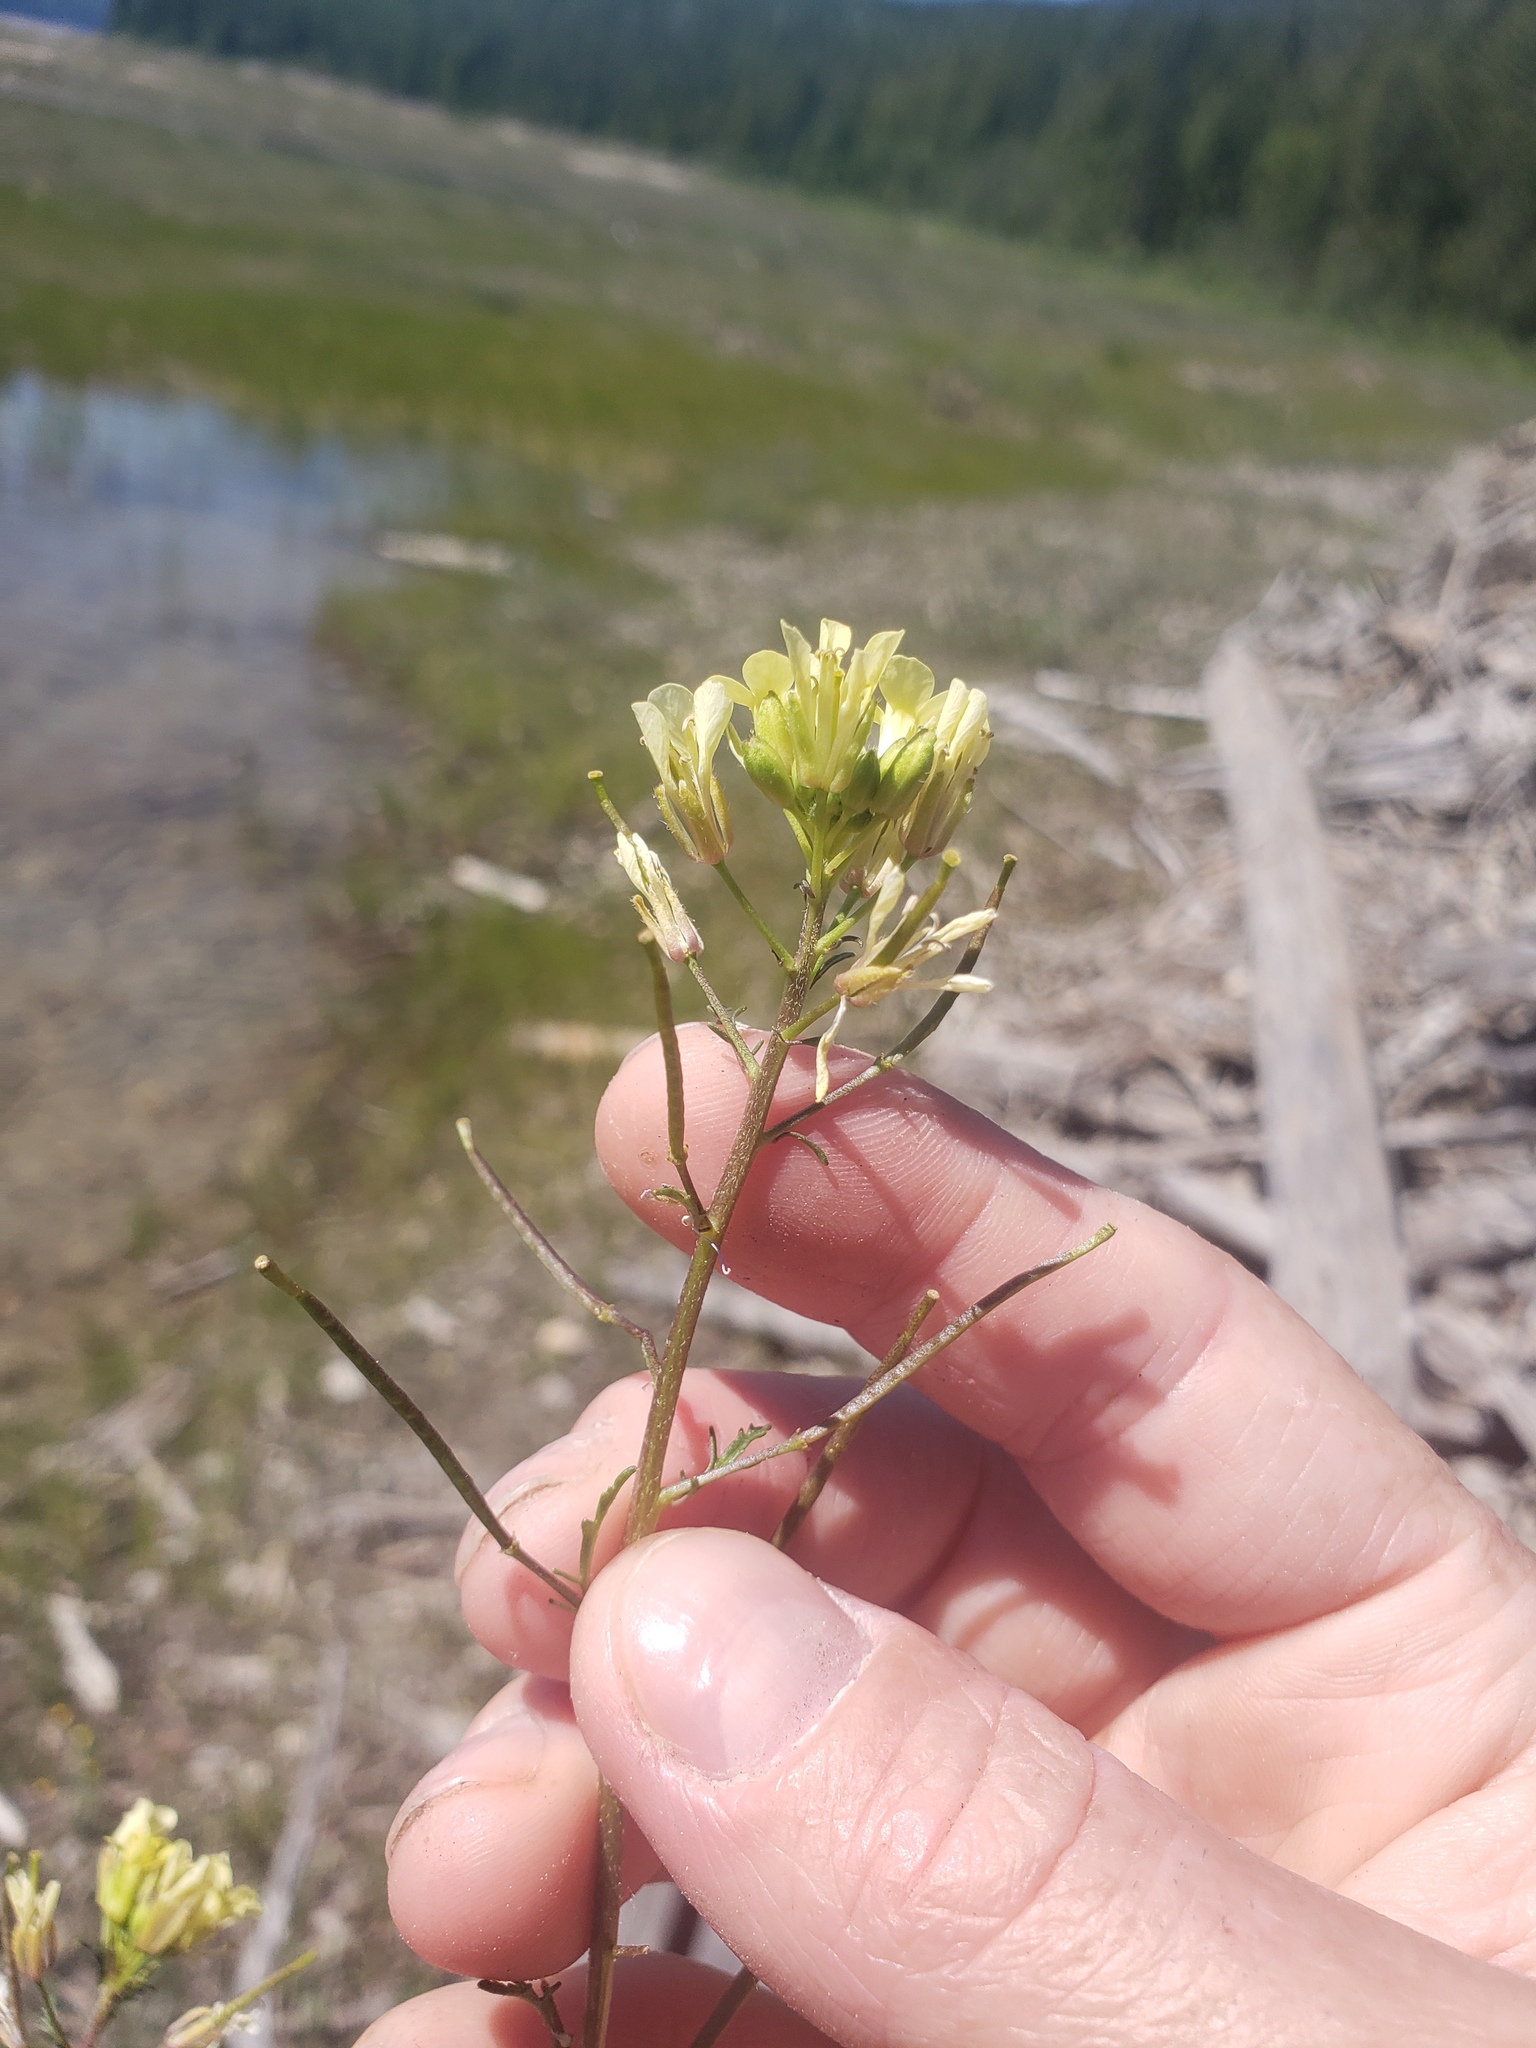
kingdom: Plantae
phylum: Tracheophyta
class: Magnoliopsida
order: Brassicales
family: Brassicaceae
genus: Erucastrum
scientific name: Erucastrum gallicum
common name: Hairy rocket
